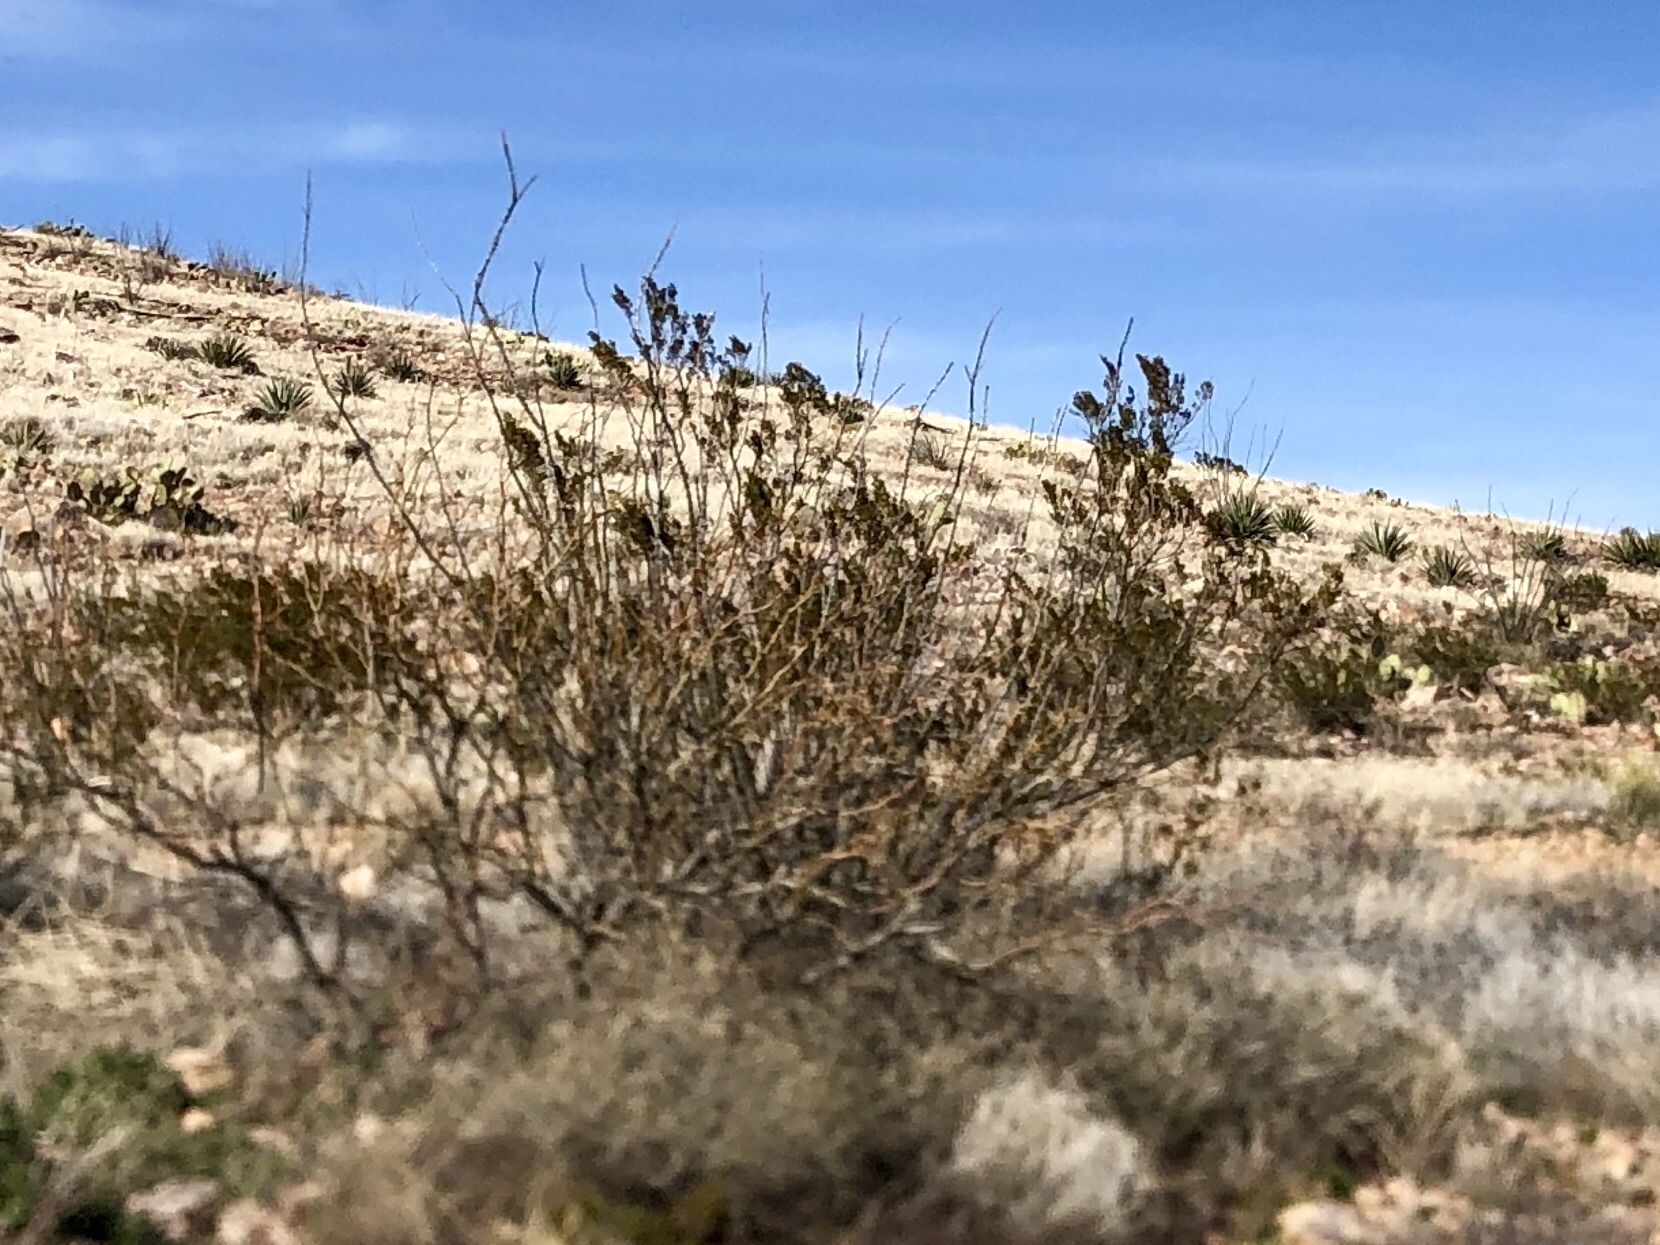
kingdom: Plantae
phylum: Tracheophyta
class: Magnoliopsida
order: Zygophyllales
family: Zygophyllaceae
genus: Larrea
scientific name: Larrea tridentata
